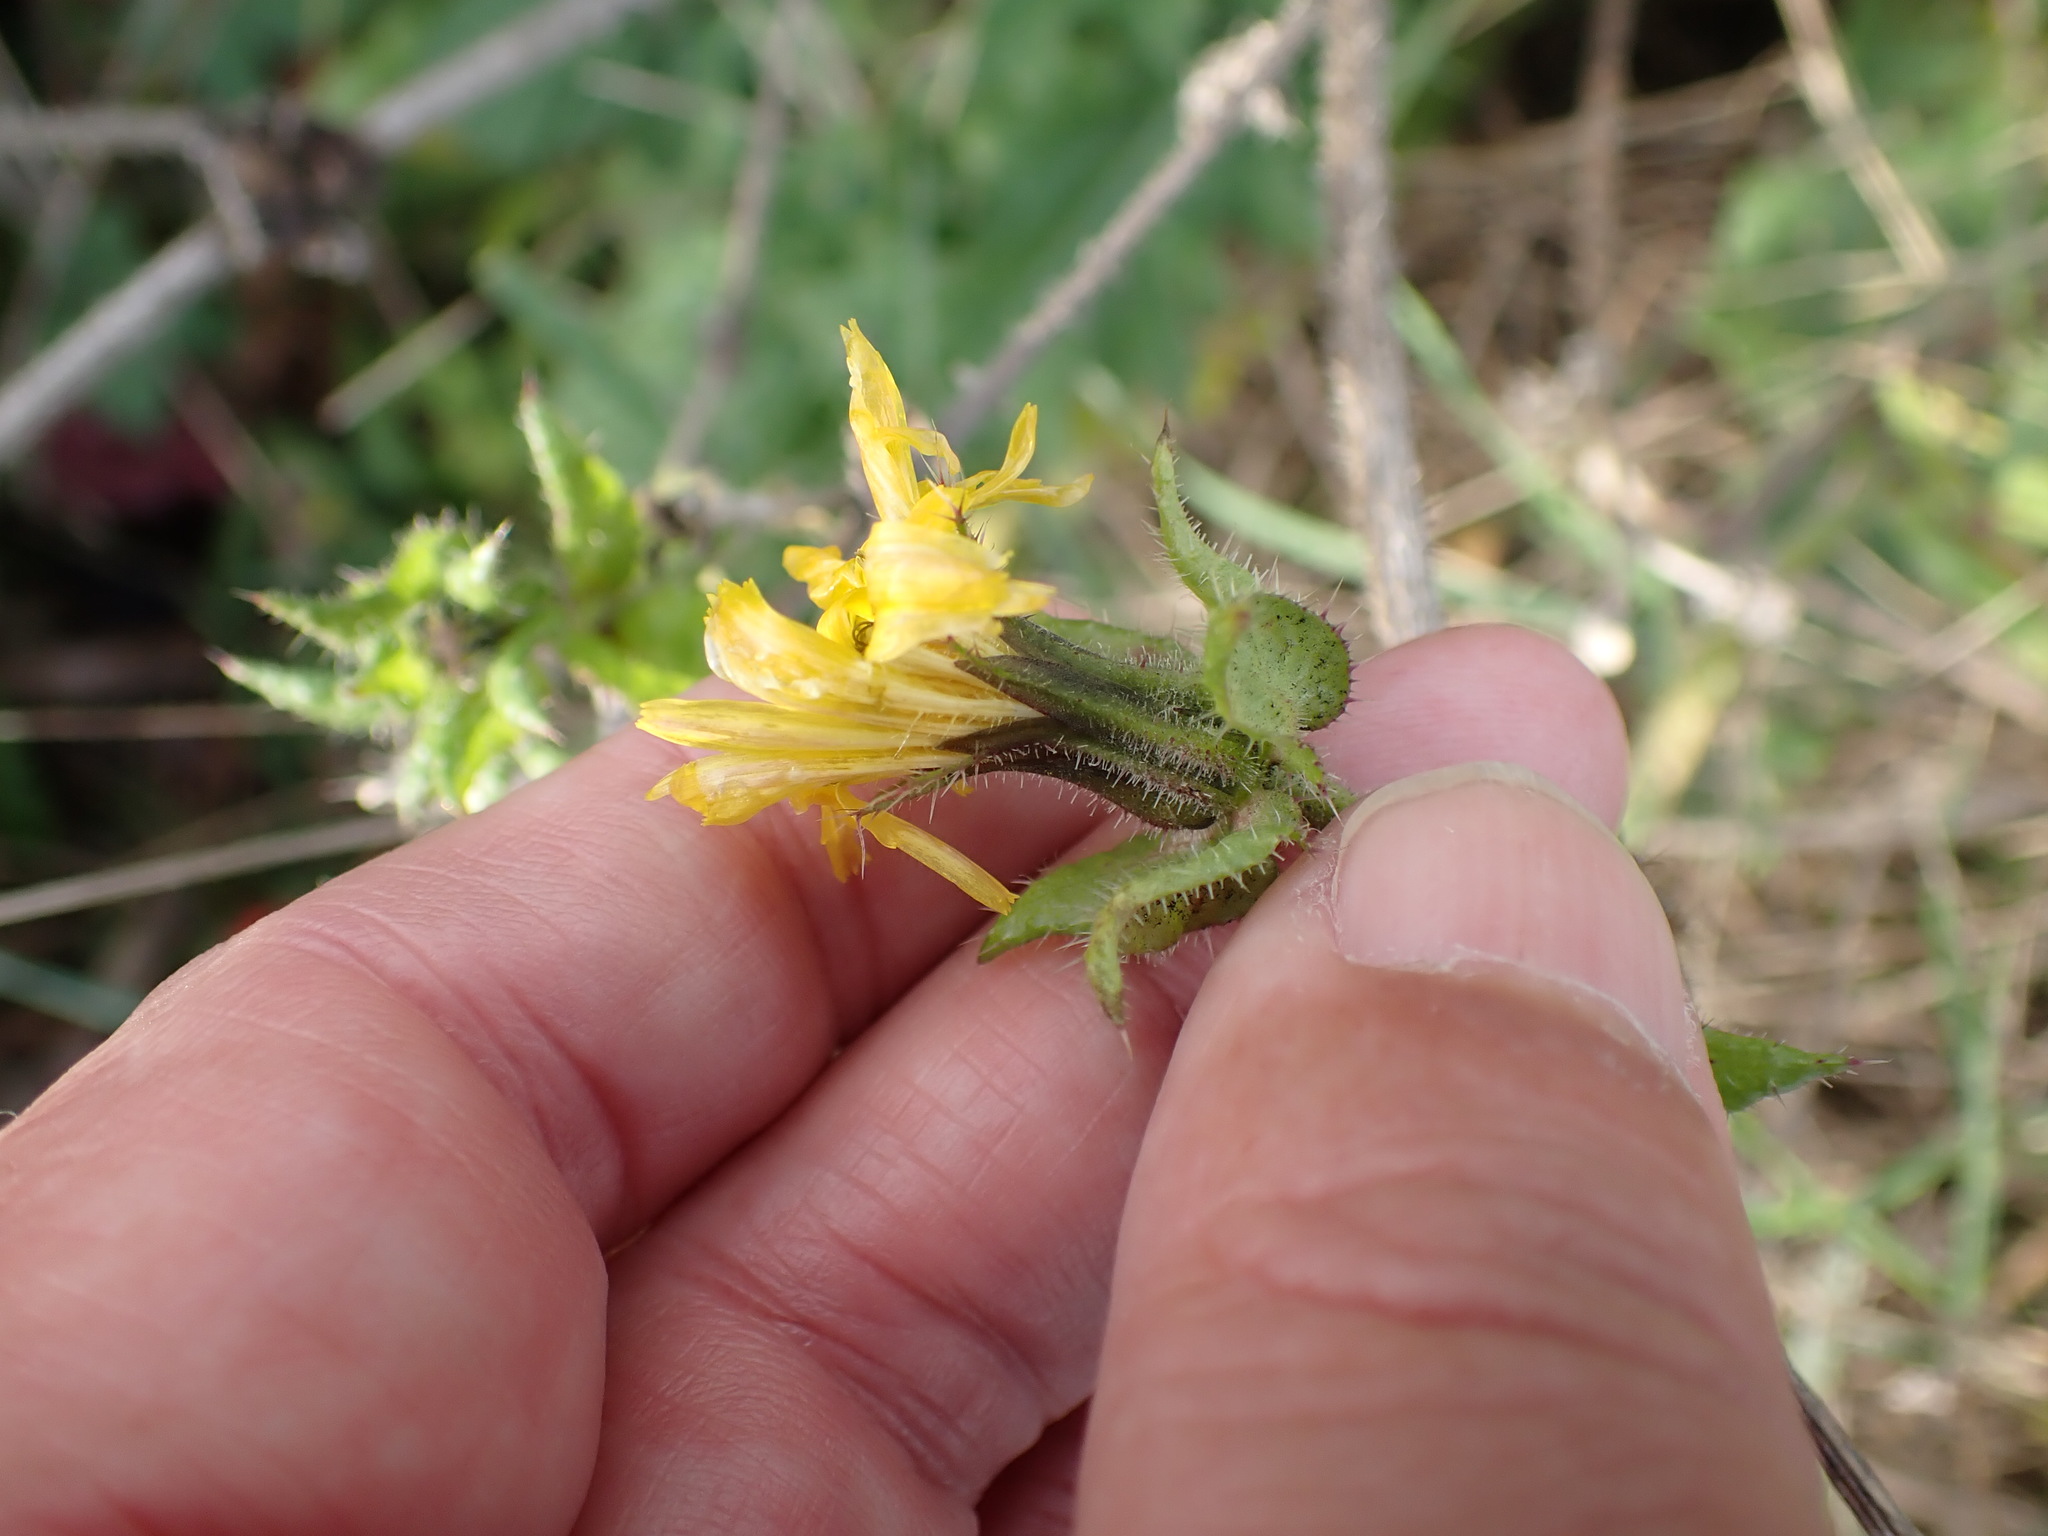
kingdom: Plantae
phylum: Tracheophyta
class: Magnoliopsida
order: Asterales
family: Asteraceae
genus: Helminthotheca
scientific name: Helminthotheca echioides
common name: Ox-tongue
